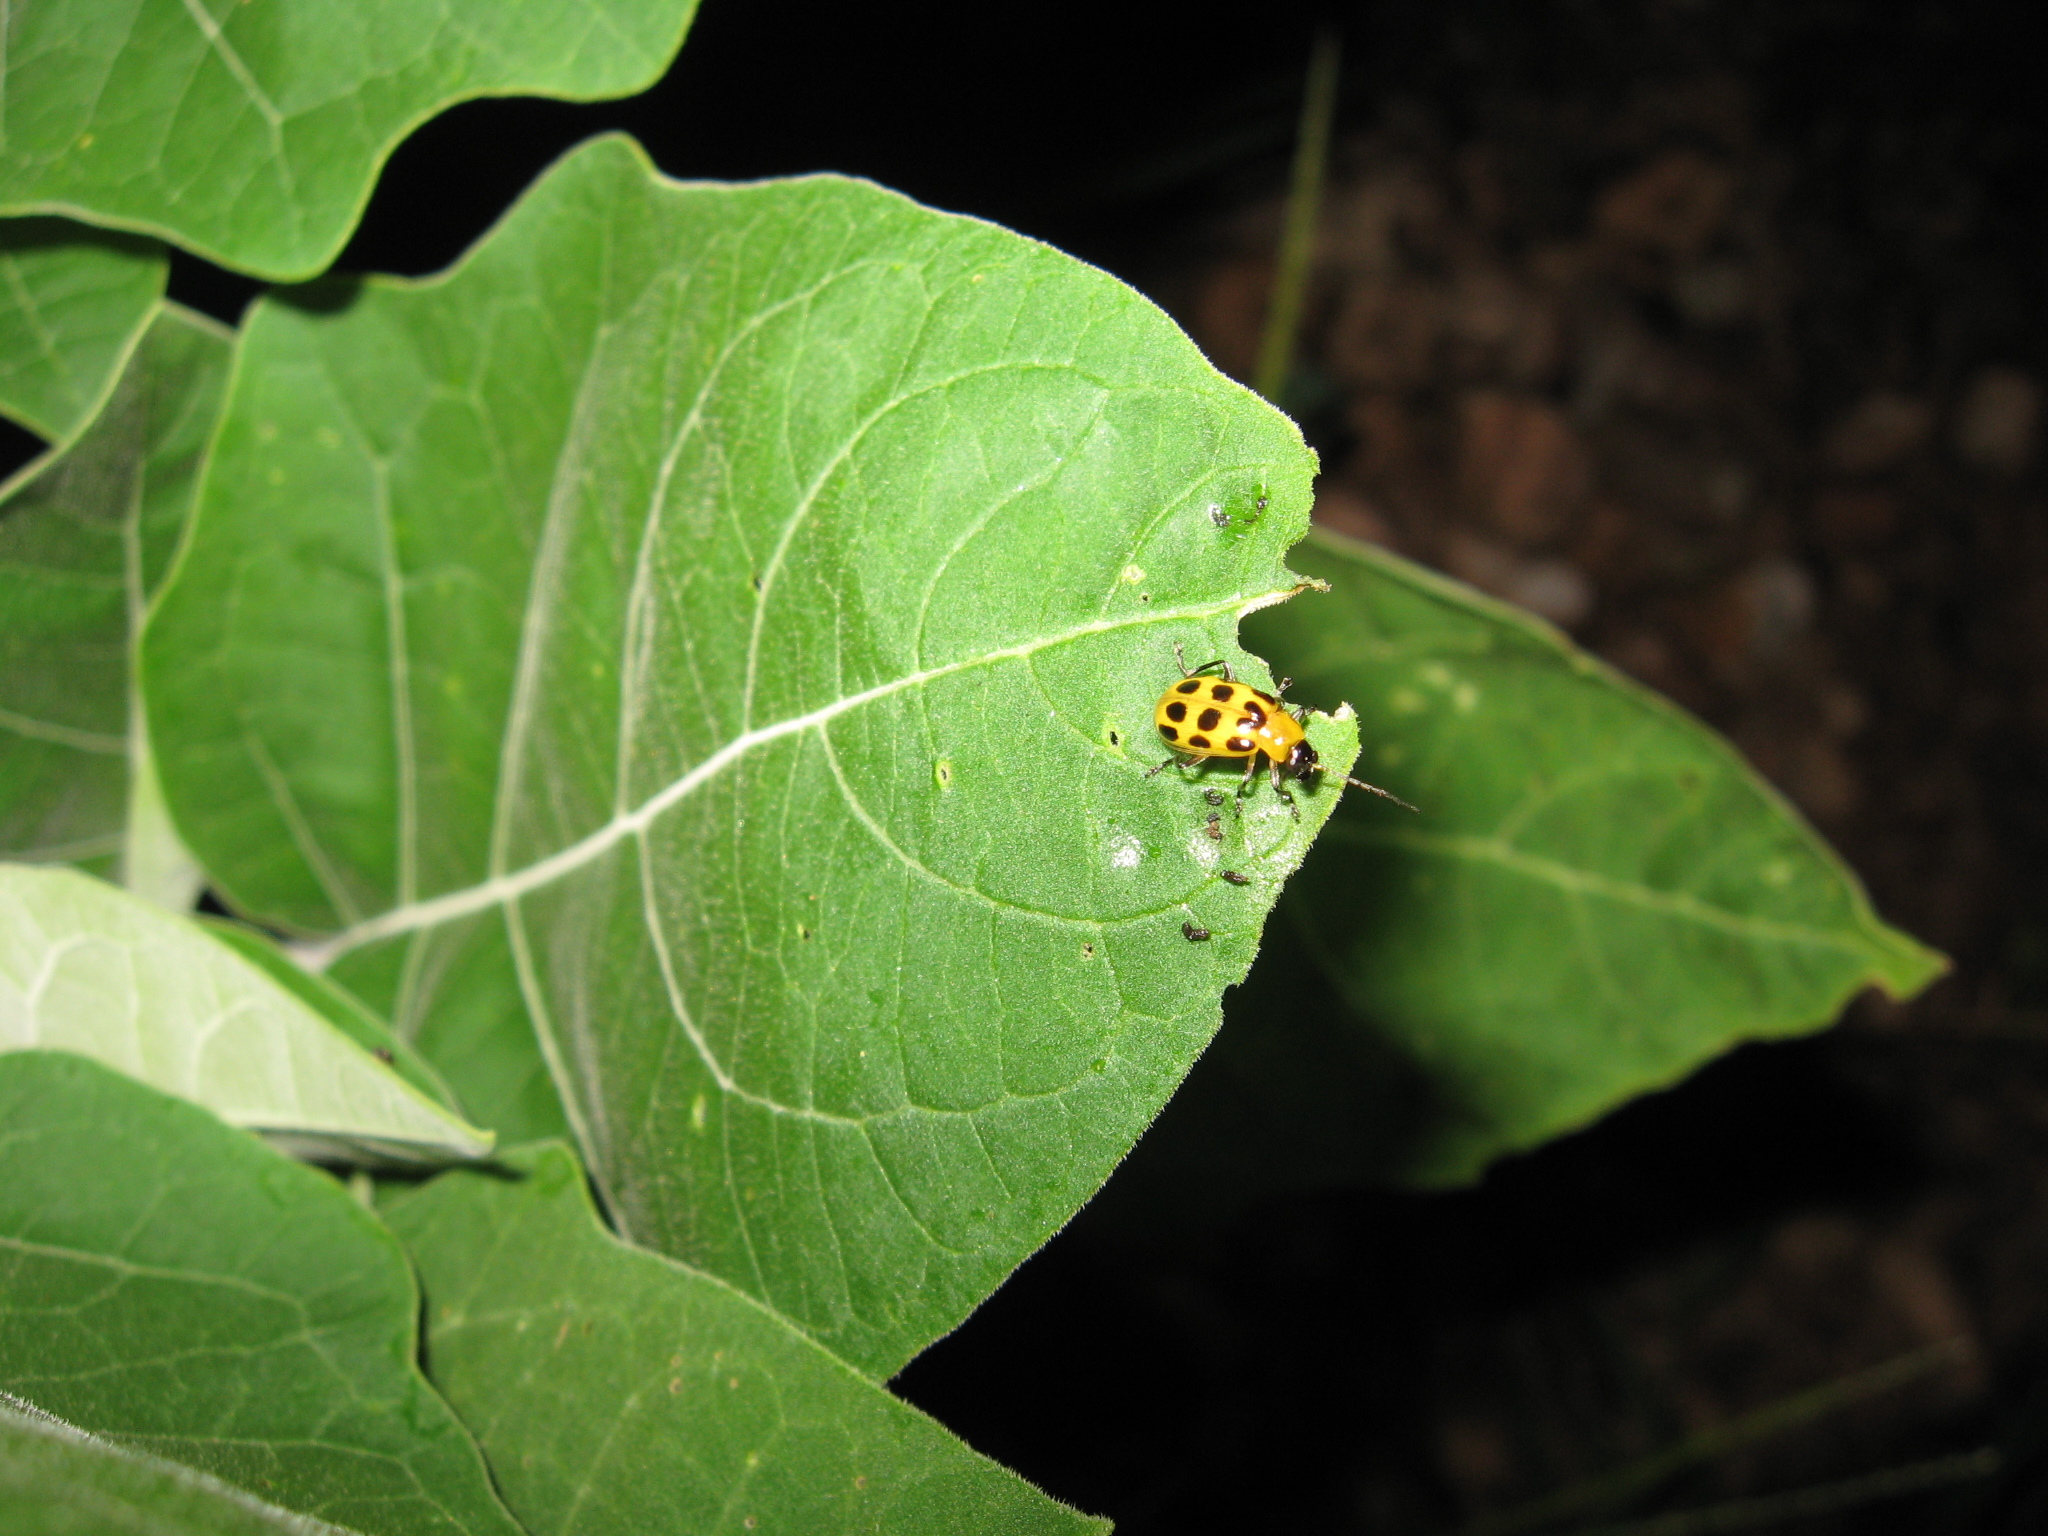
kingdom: Animalia
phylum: Arthropoda
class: Insecta
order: Coleoptera
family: Chrysomelidae
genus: Diabrotica
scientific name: Diabrotica undecimpunctata
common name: Spotted cucumber beetle
